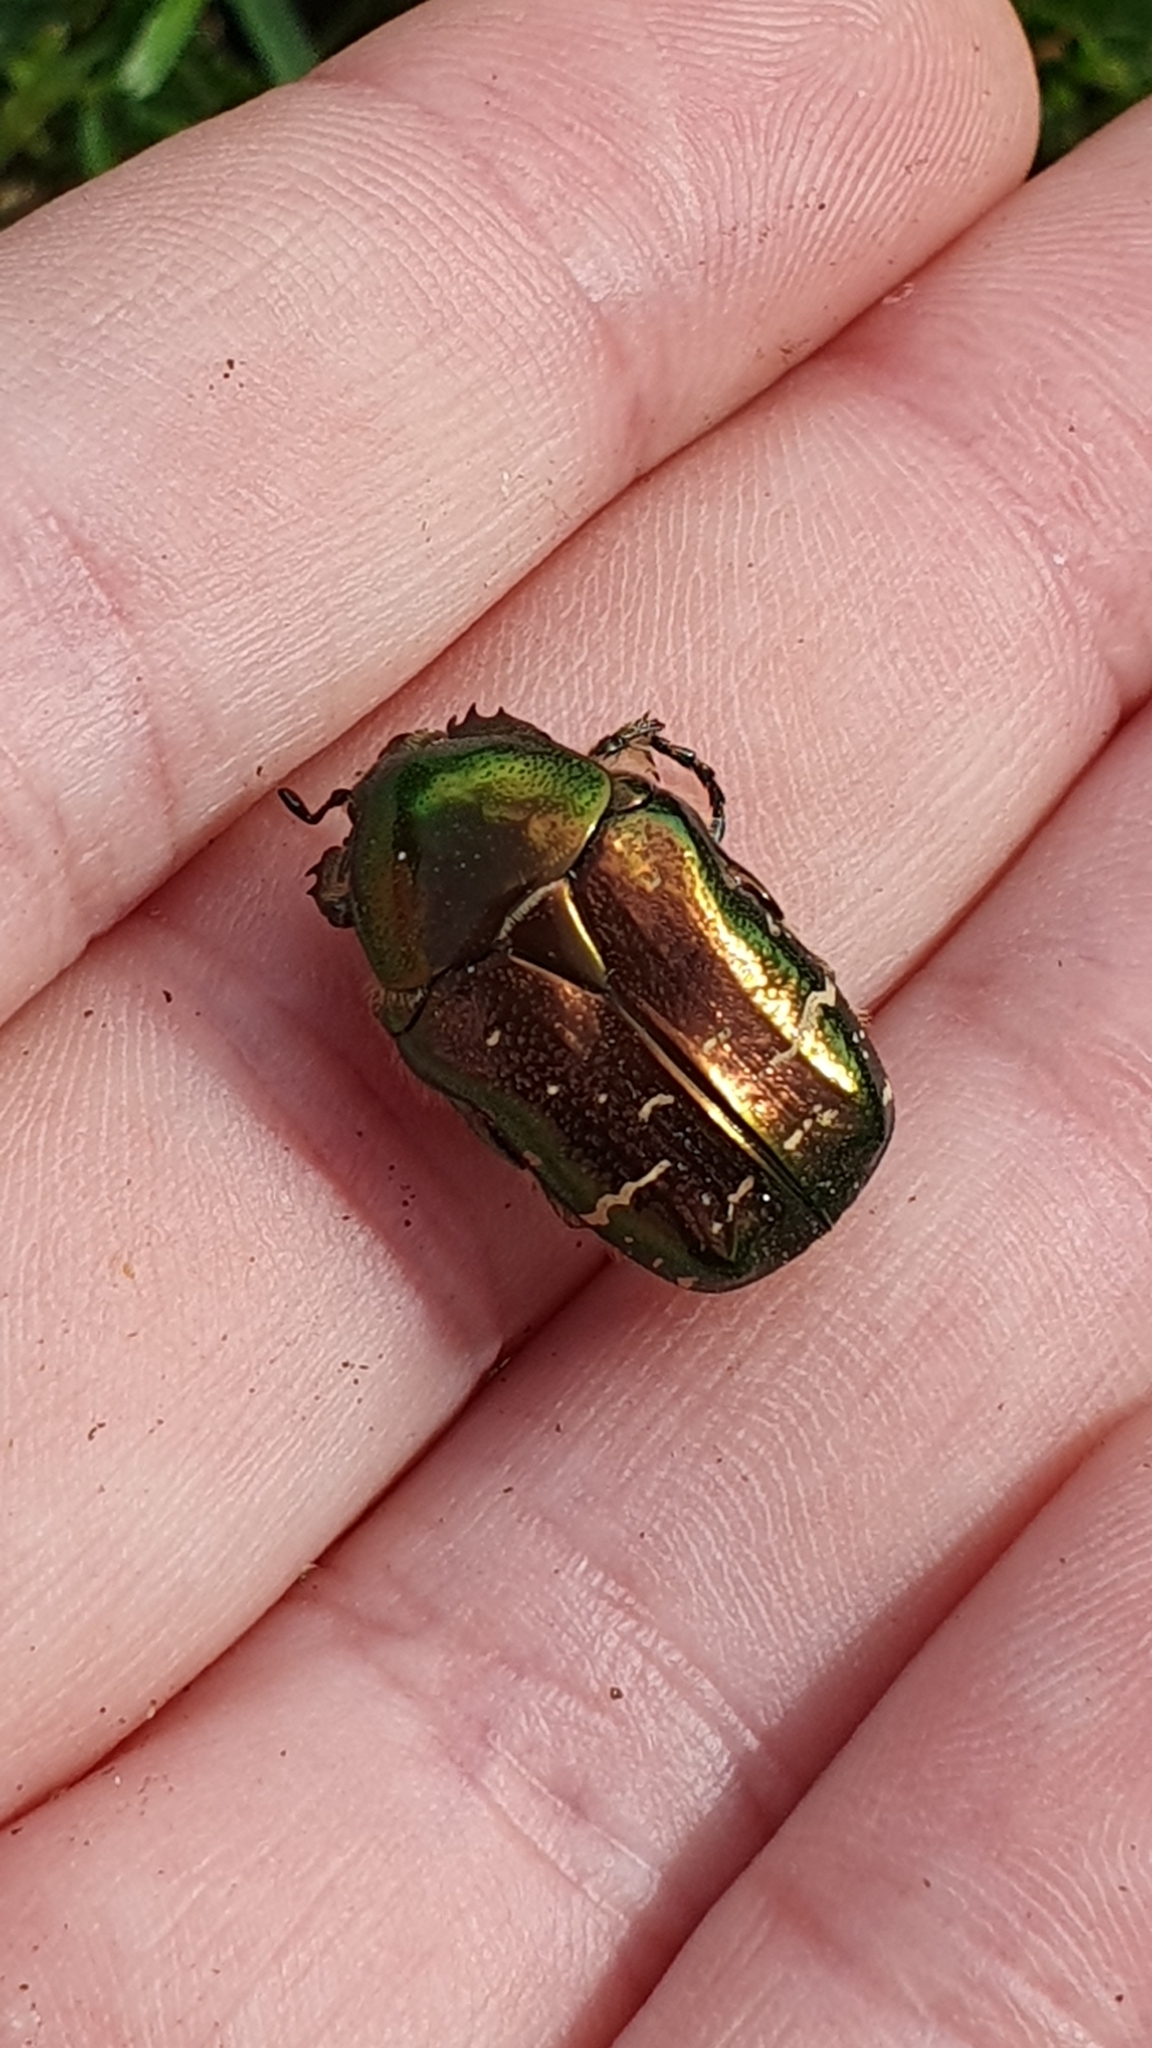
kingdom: Animalia
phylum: Arthropoda
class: Insecta
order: Coleoptera
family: Scarabaeidae
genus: Cetonia
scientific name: Cetonia aurata
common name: Rose chafer
